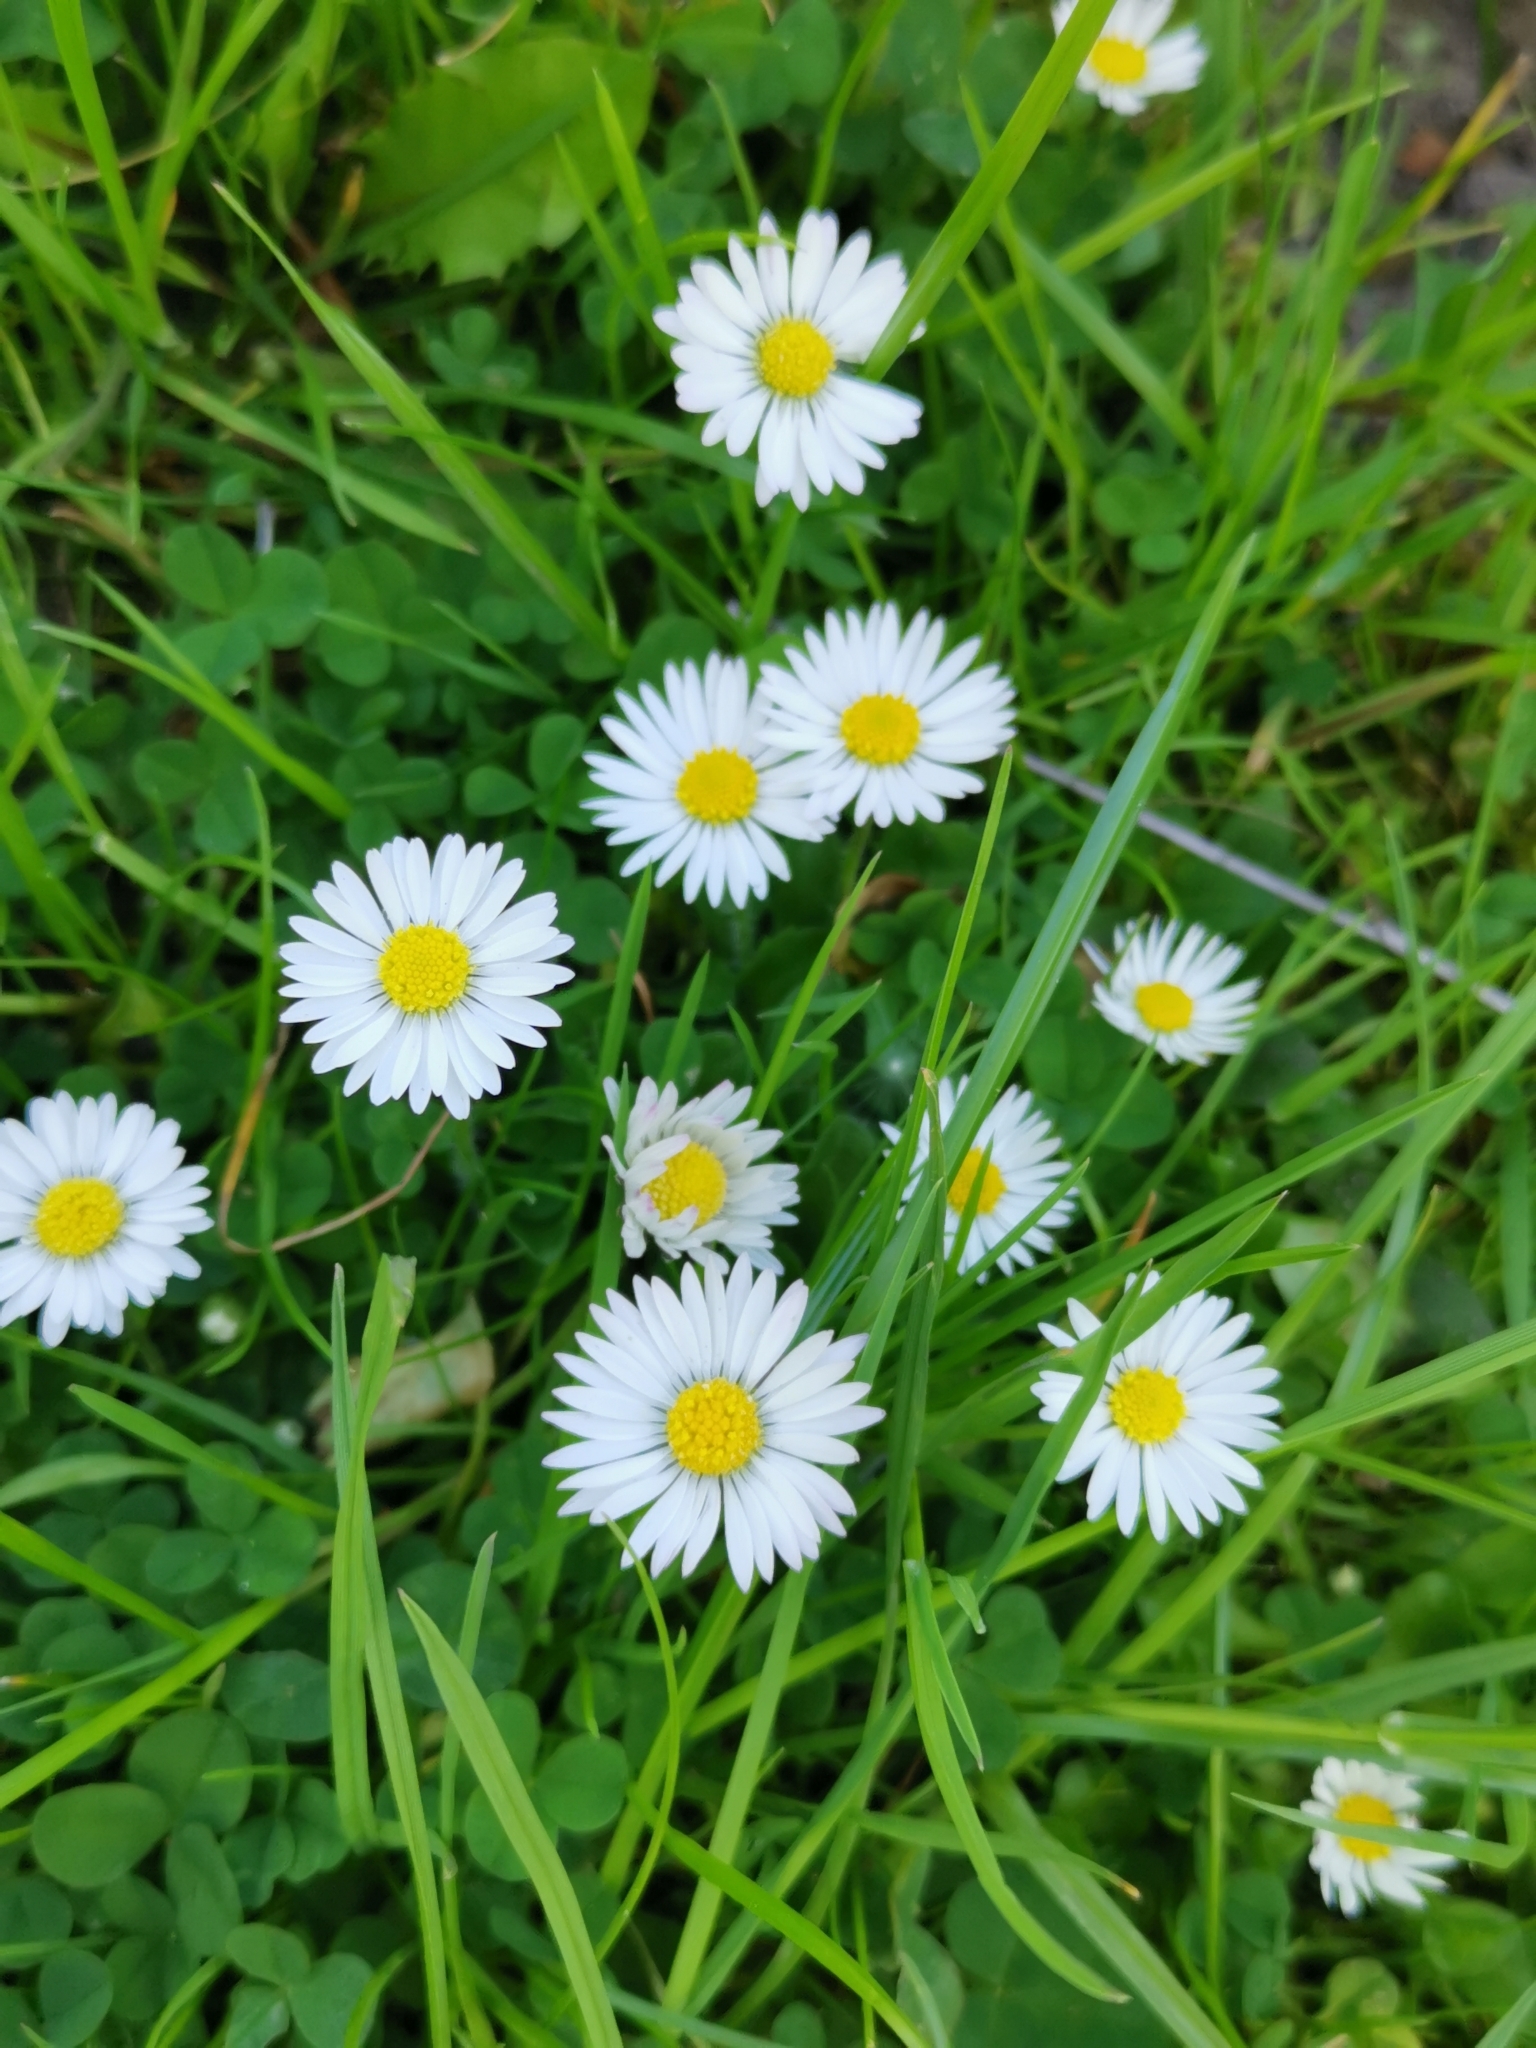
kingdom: Plantae
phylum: Tracheophyta
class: Magnoliopsida
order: Asterales
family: Asteraceae
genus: Bellis
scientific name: Bellis perennis
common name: Lawndaisy
